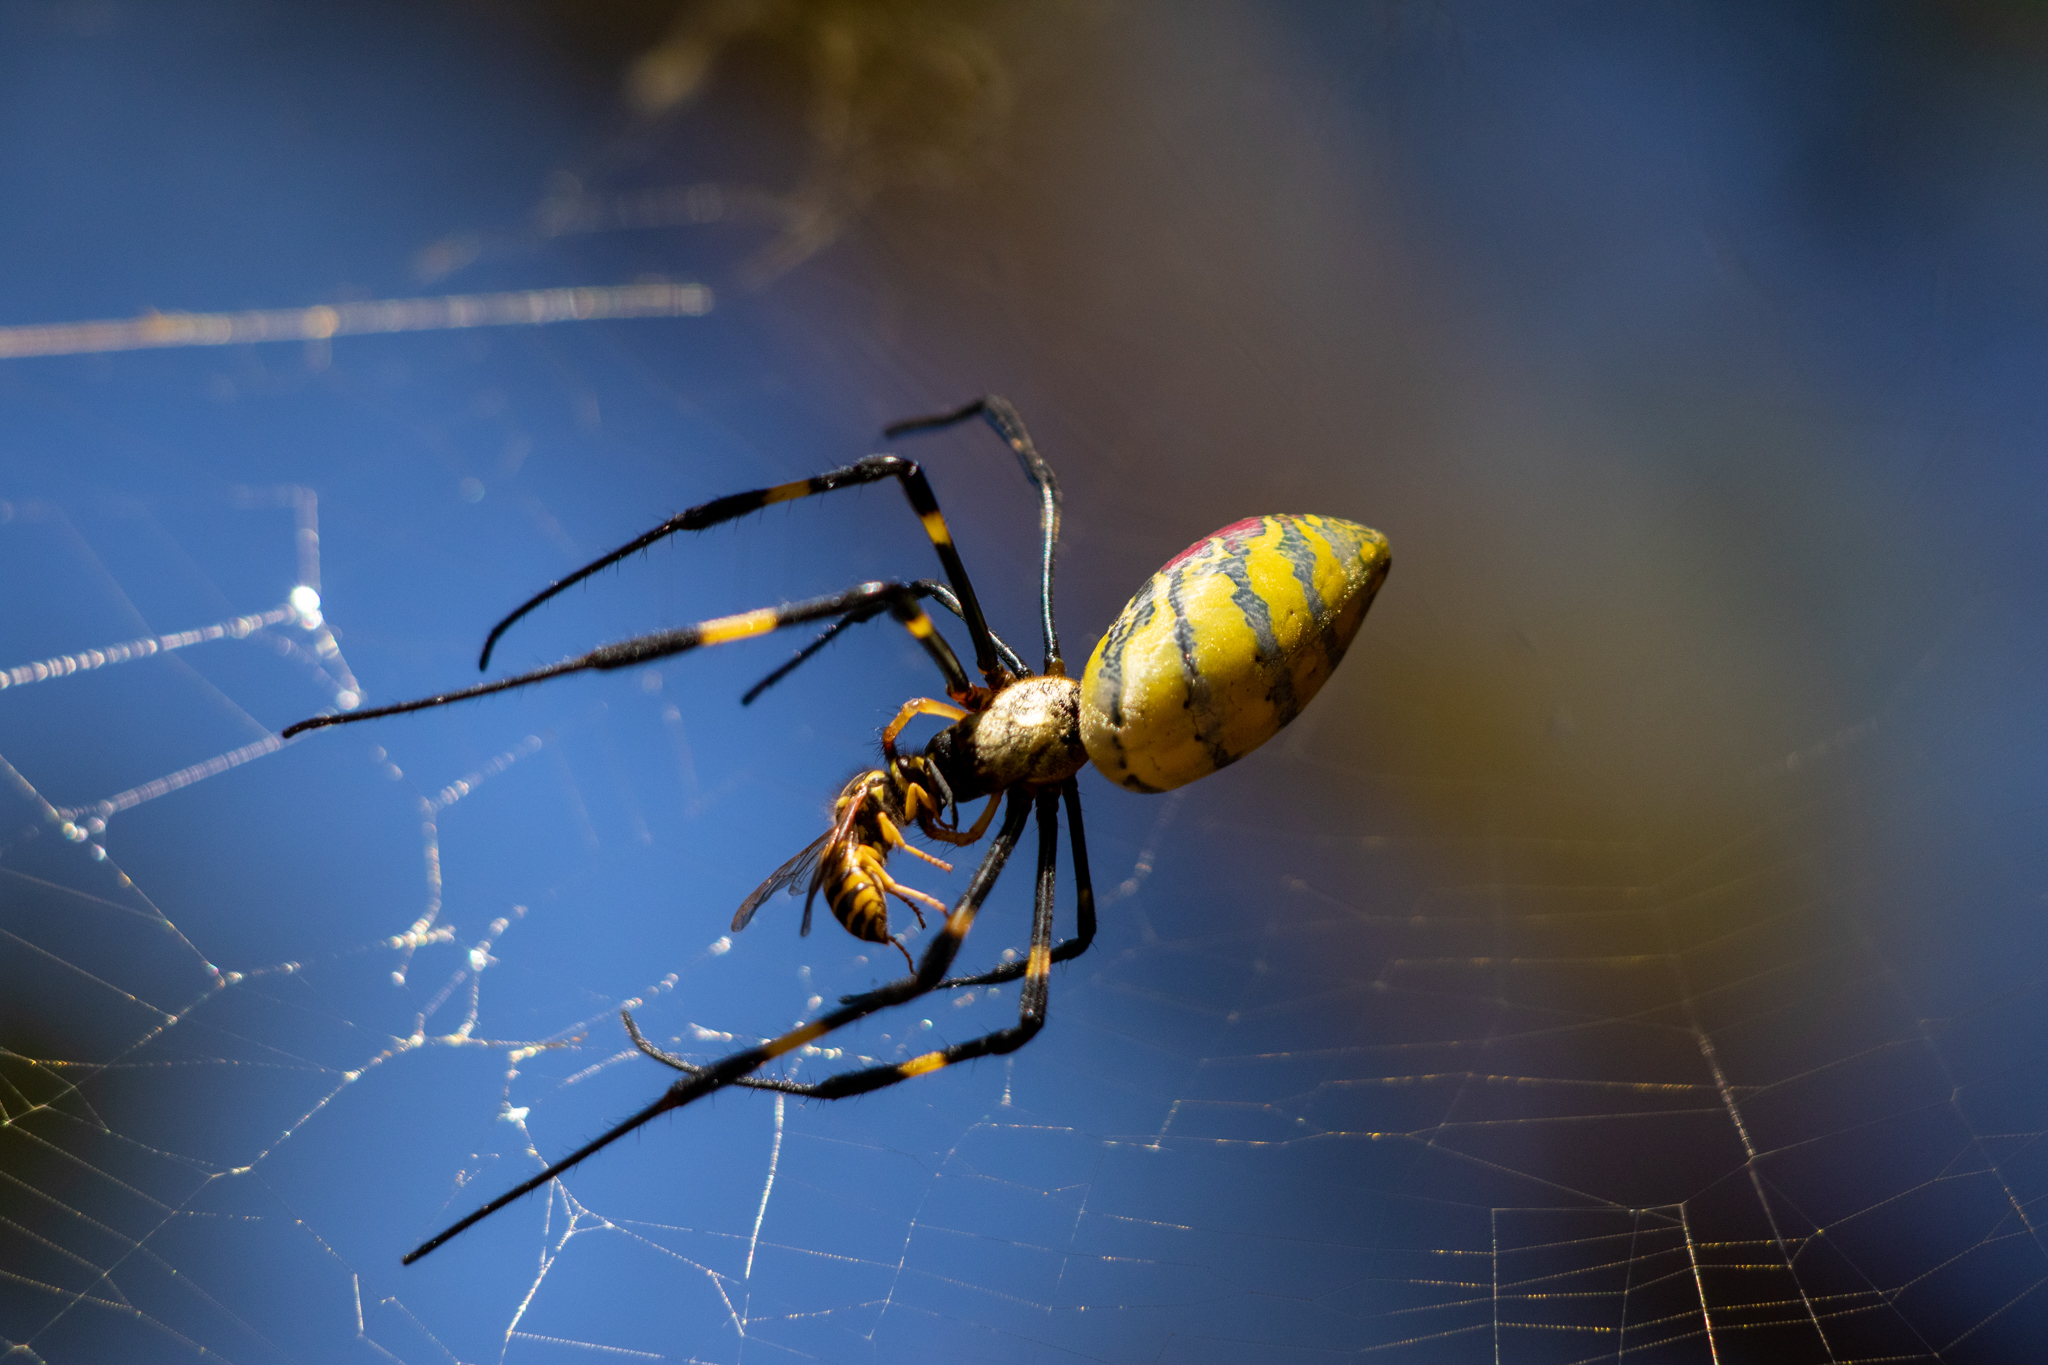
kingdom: Animalia
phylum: Arthropoda
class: Arachnida
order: Araneae
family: Araneidae
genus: Trichonephila
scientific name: Trichonephila clavata
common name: Jorō spider
